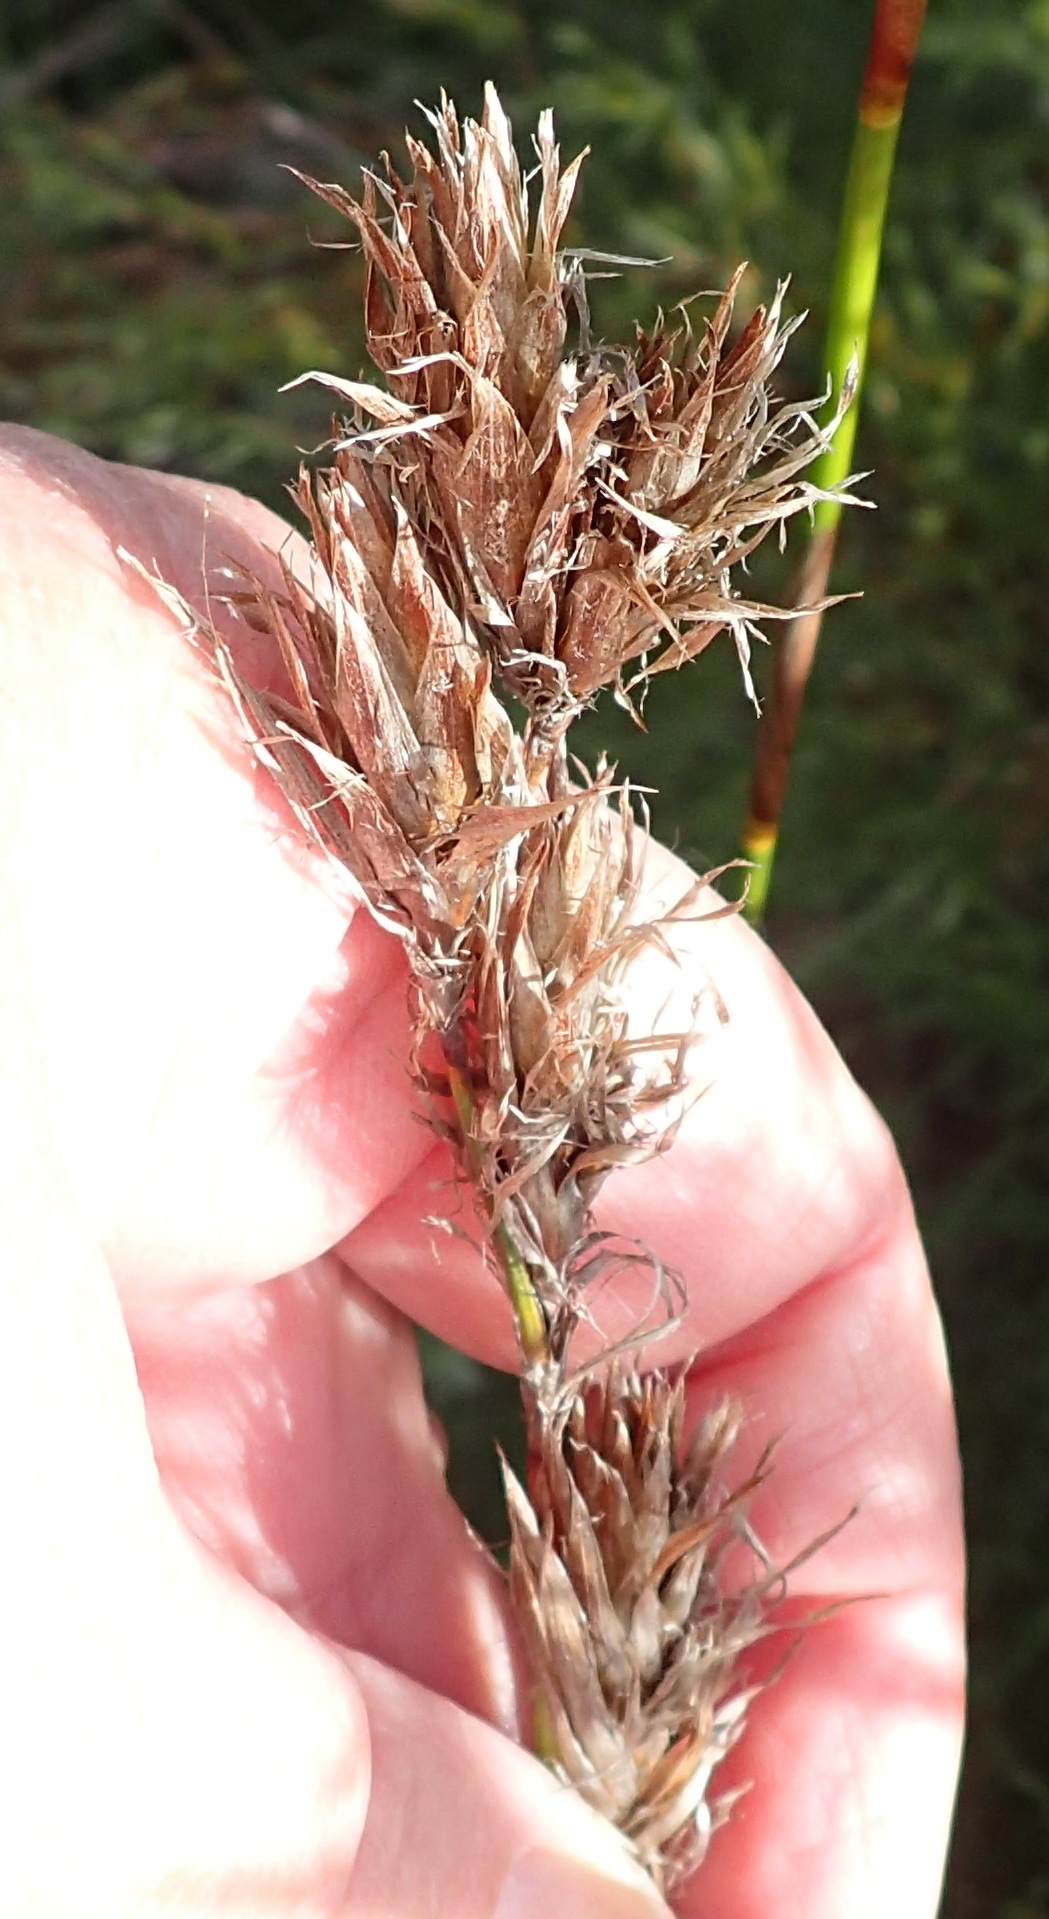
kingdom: Plantae
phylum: Tracheophyta
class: Liliopsida
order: Poales
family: Restionaceae
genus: Thamnochortus
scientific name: Thamnochortus glaber
